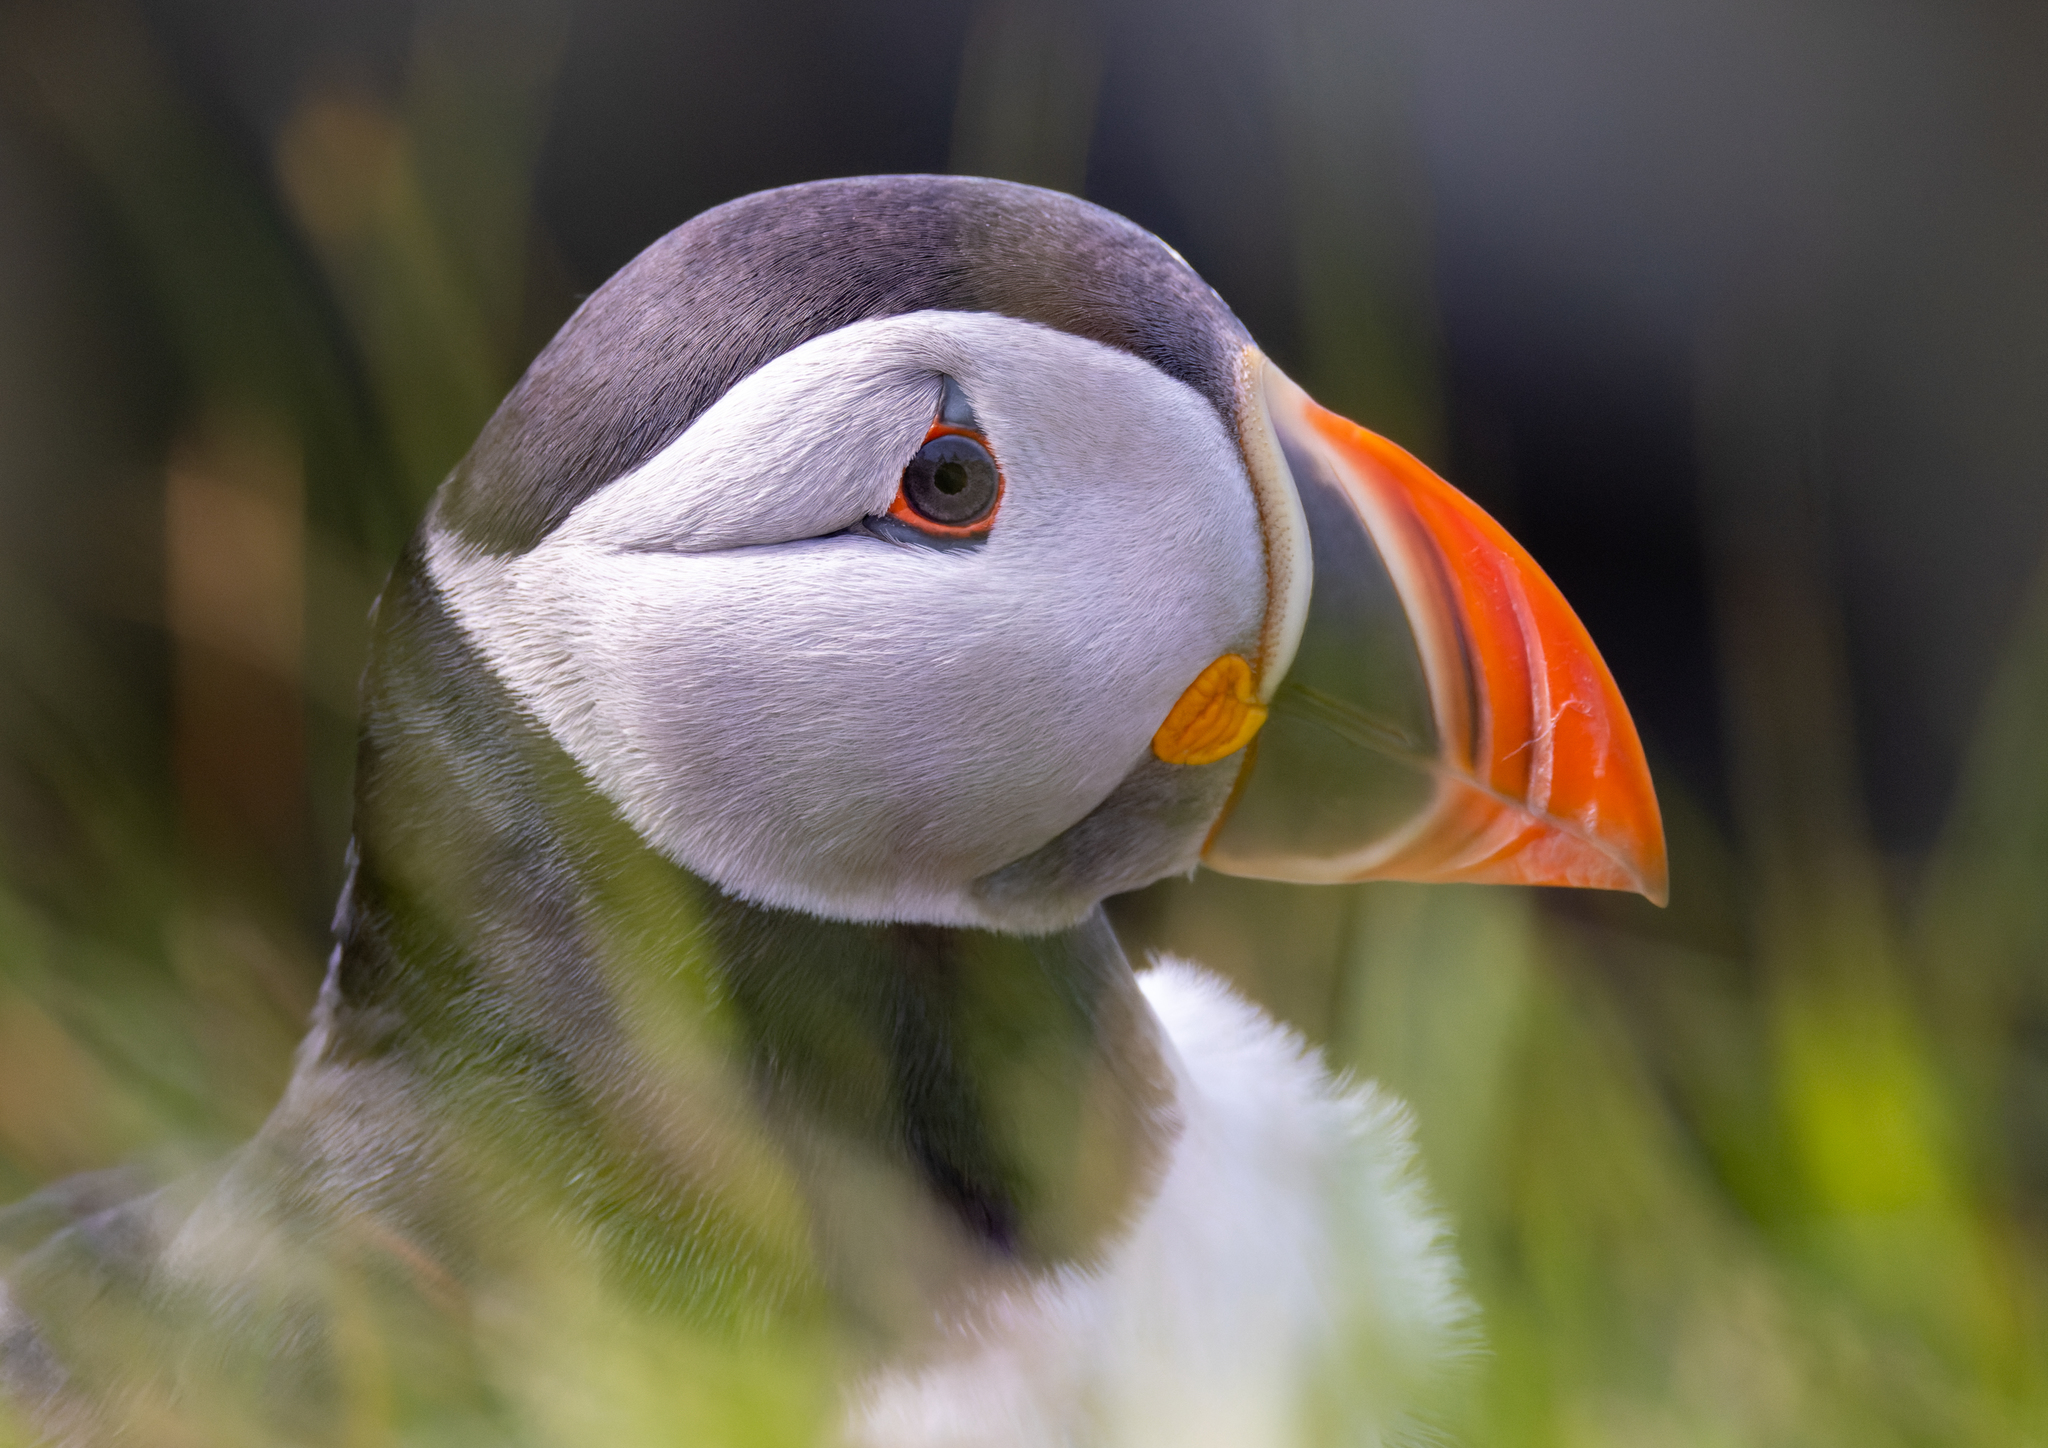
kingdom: Animalia
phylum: Chordata
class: Aves
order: Charadriiformes
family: Alcidae
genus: Fratercula
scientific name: Fratercula arctica
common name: Atlantic puffin
